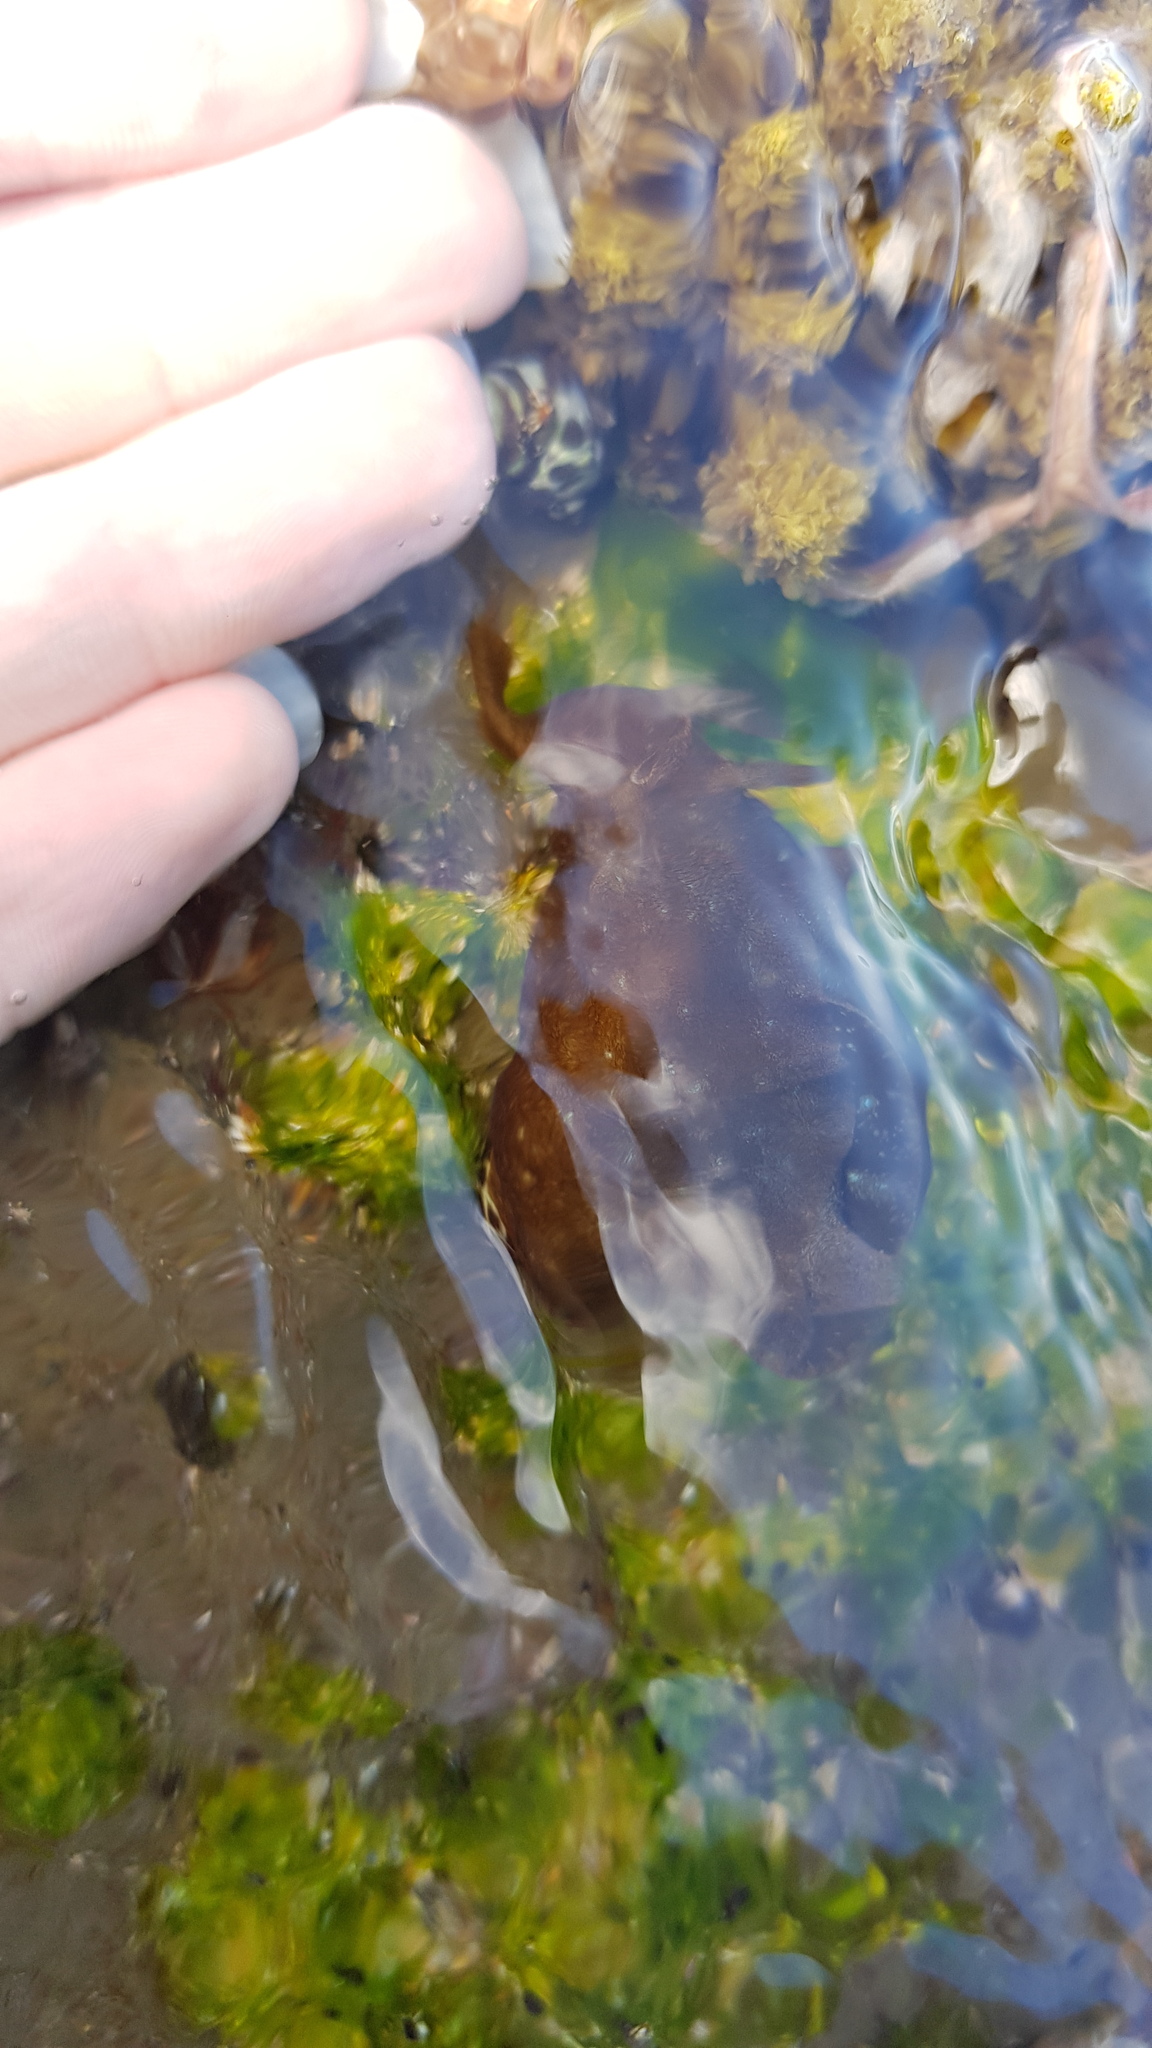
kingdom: Animalia
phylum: Mollusca
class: Gastropoda
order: Aplysiida
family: Aplysiidae
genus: Aplysia
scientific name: Aplysia juliana
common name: Walking sea hare
